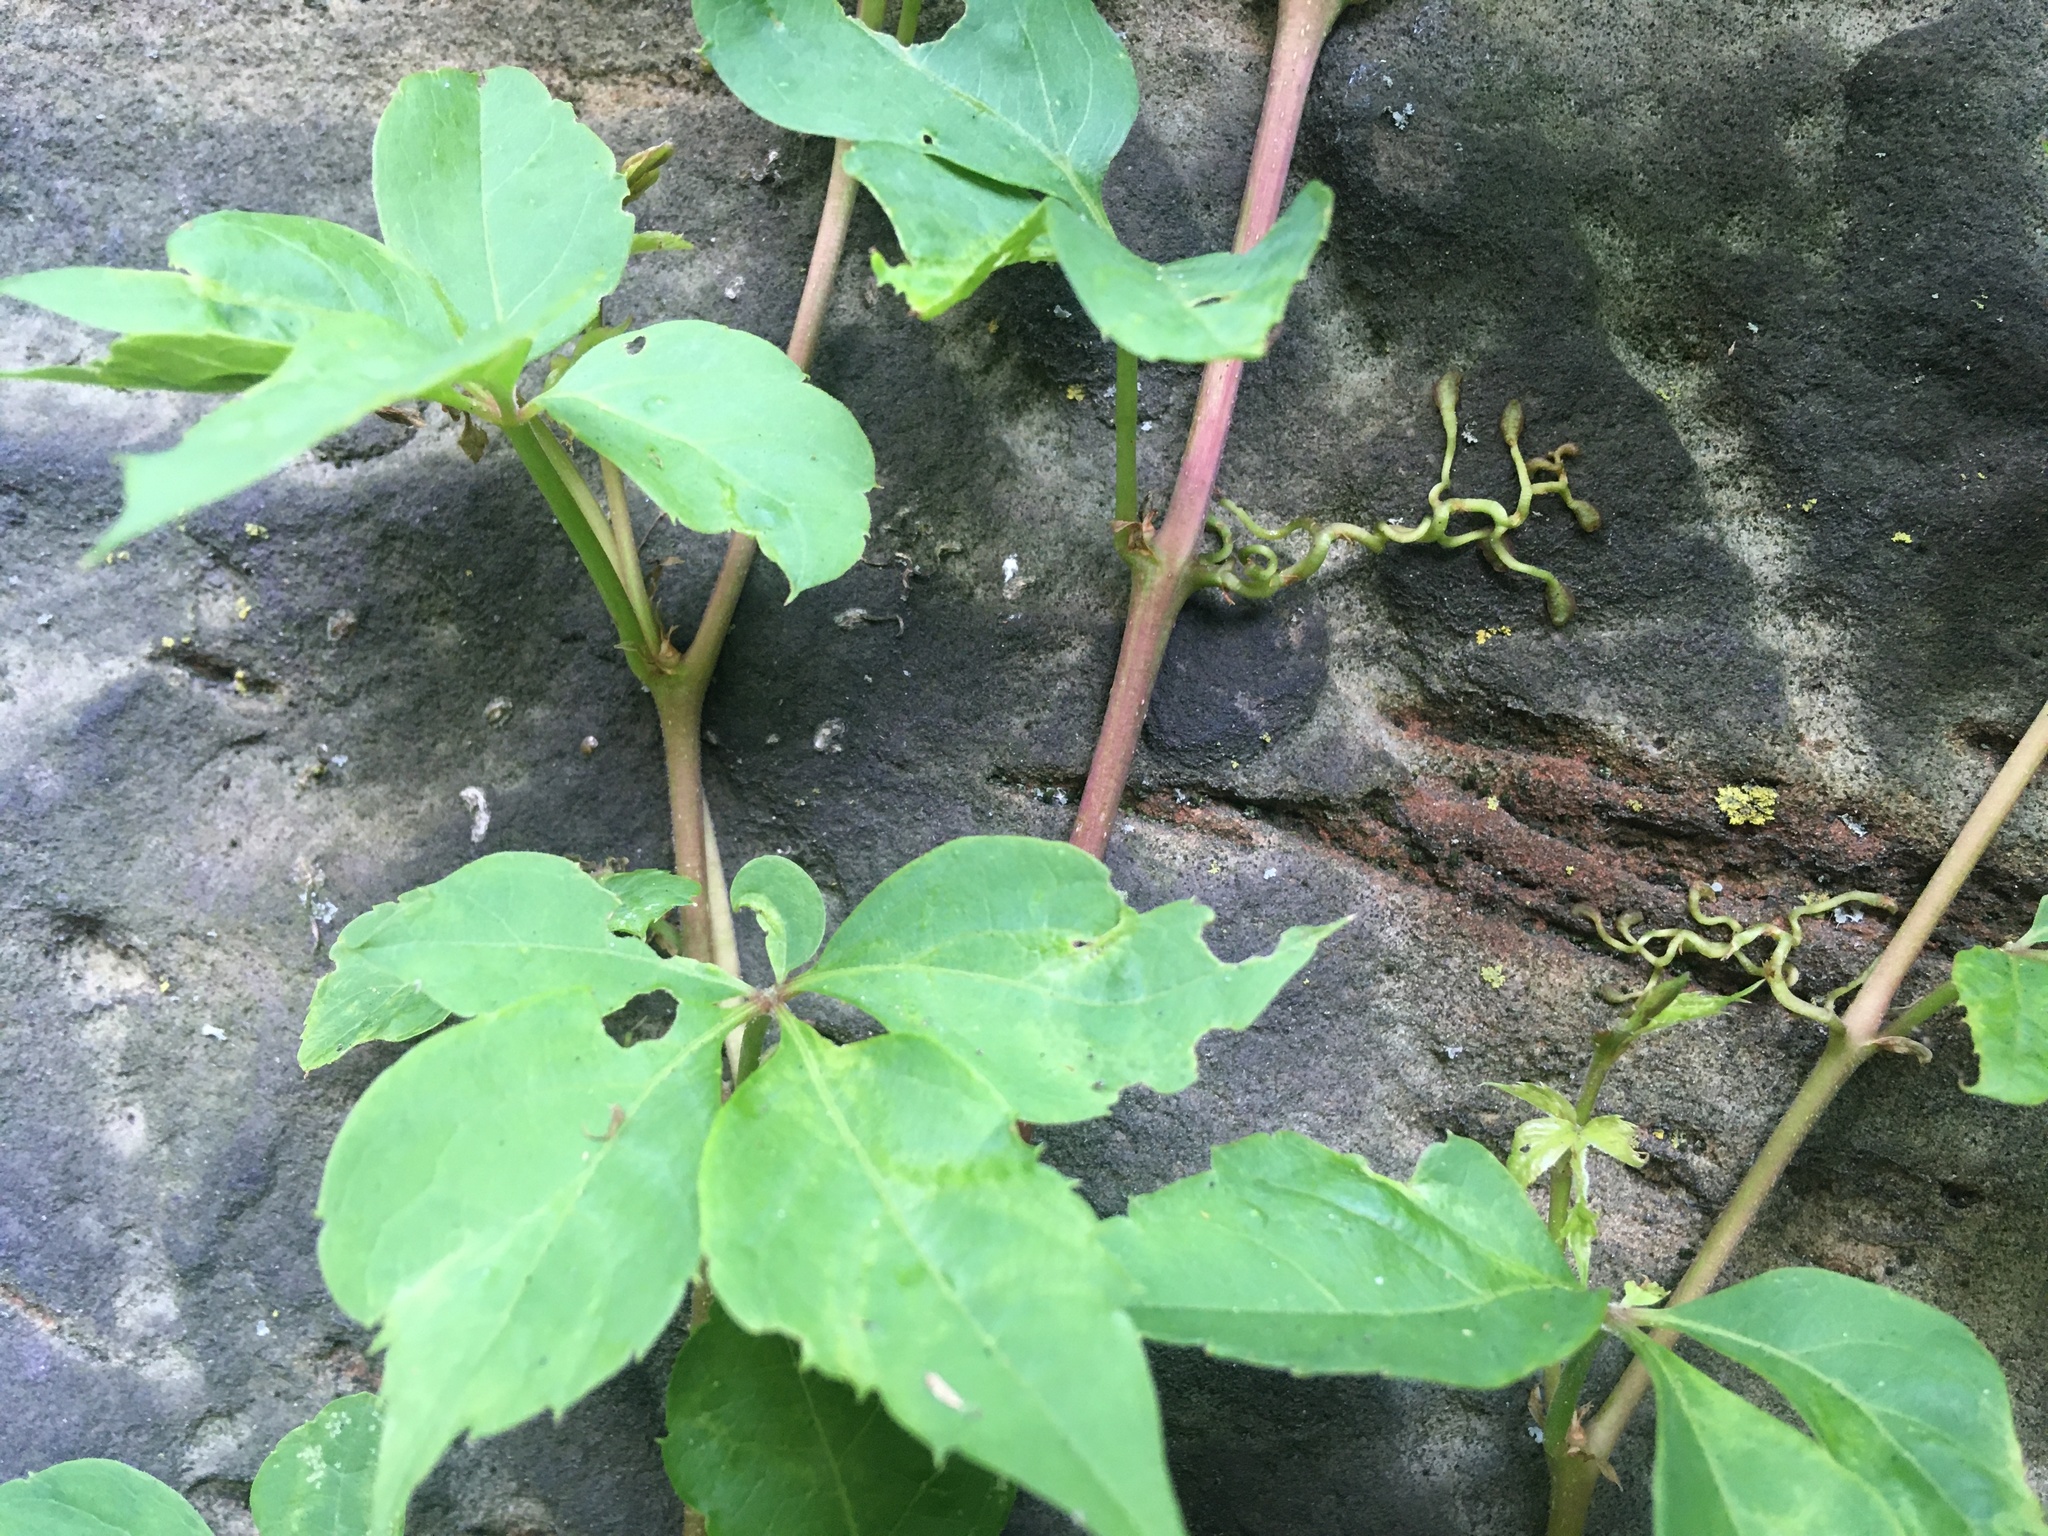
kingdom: Plantae
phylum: Tracheophyta
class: Magnoliopsida
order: Vitales
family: Vitaceae
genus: Parthenocissus
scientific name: Parthenocissus quinquefolia
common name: Virginia-creeper
